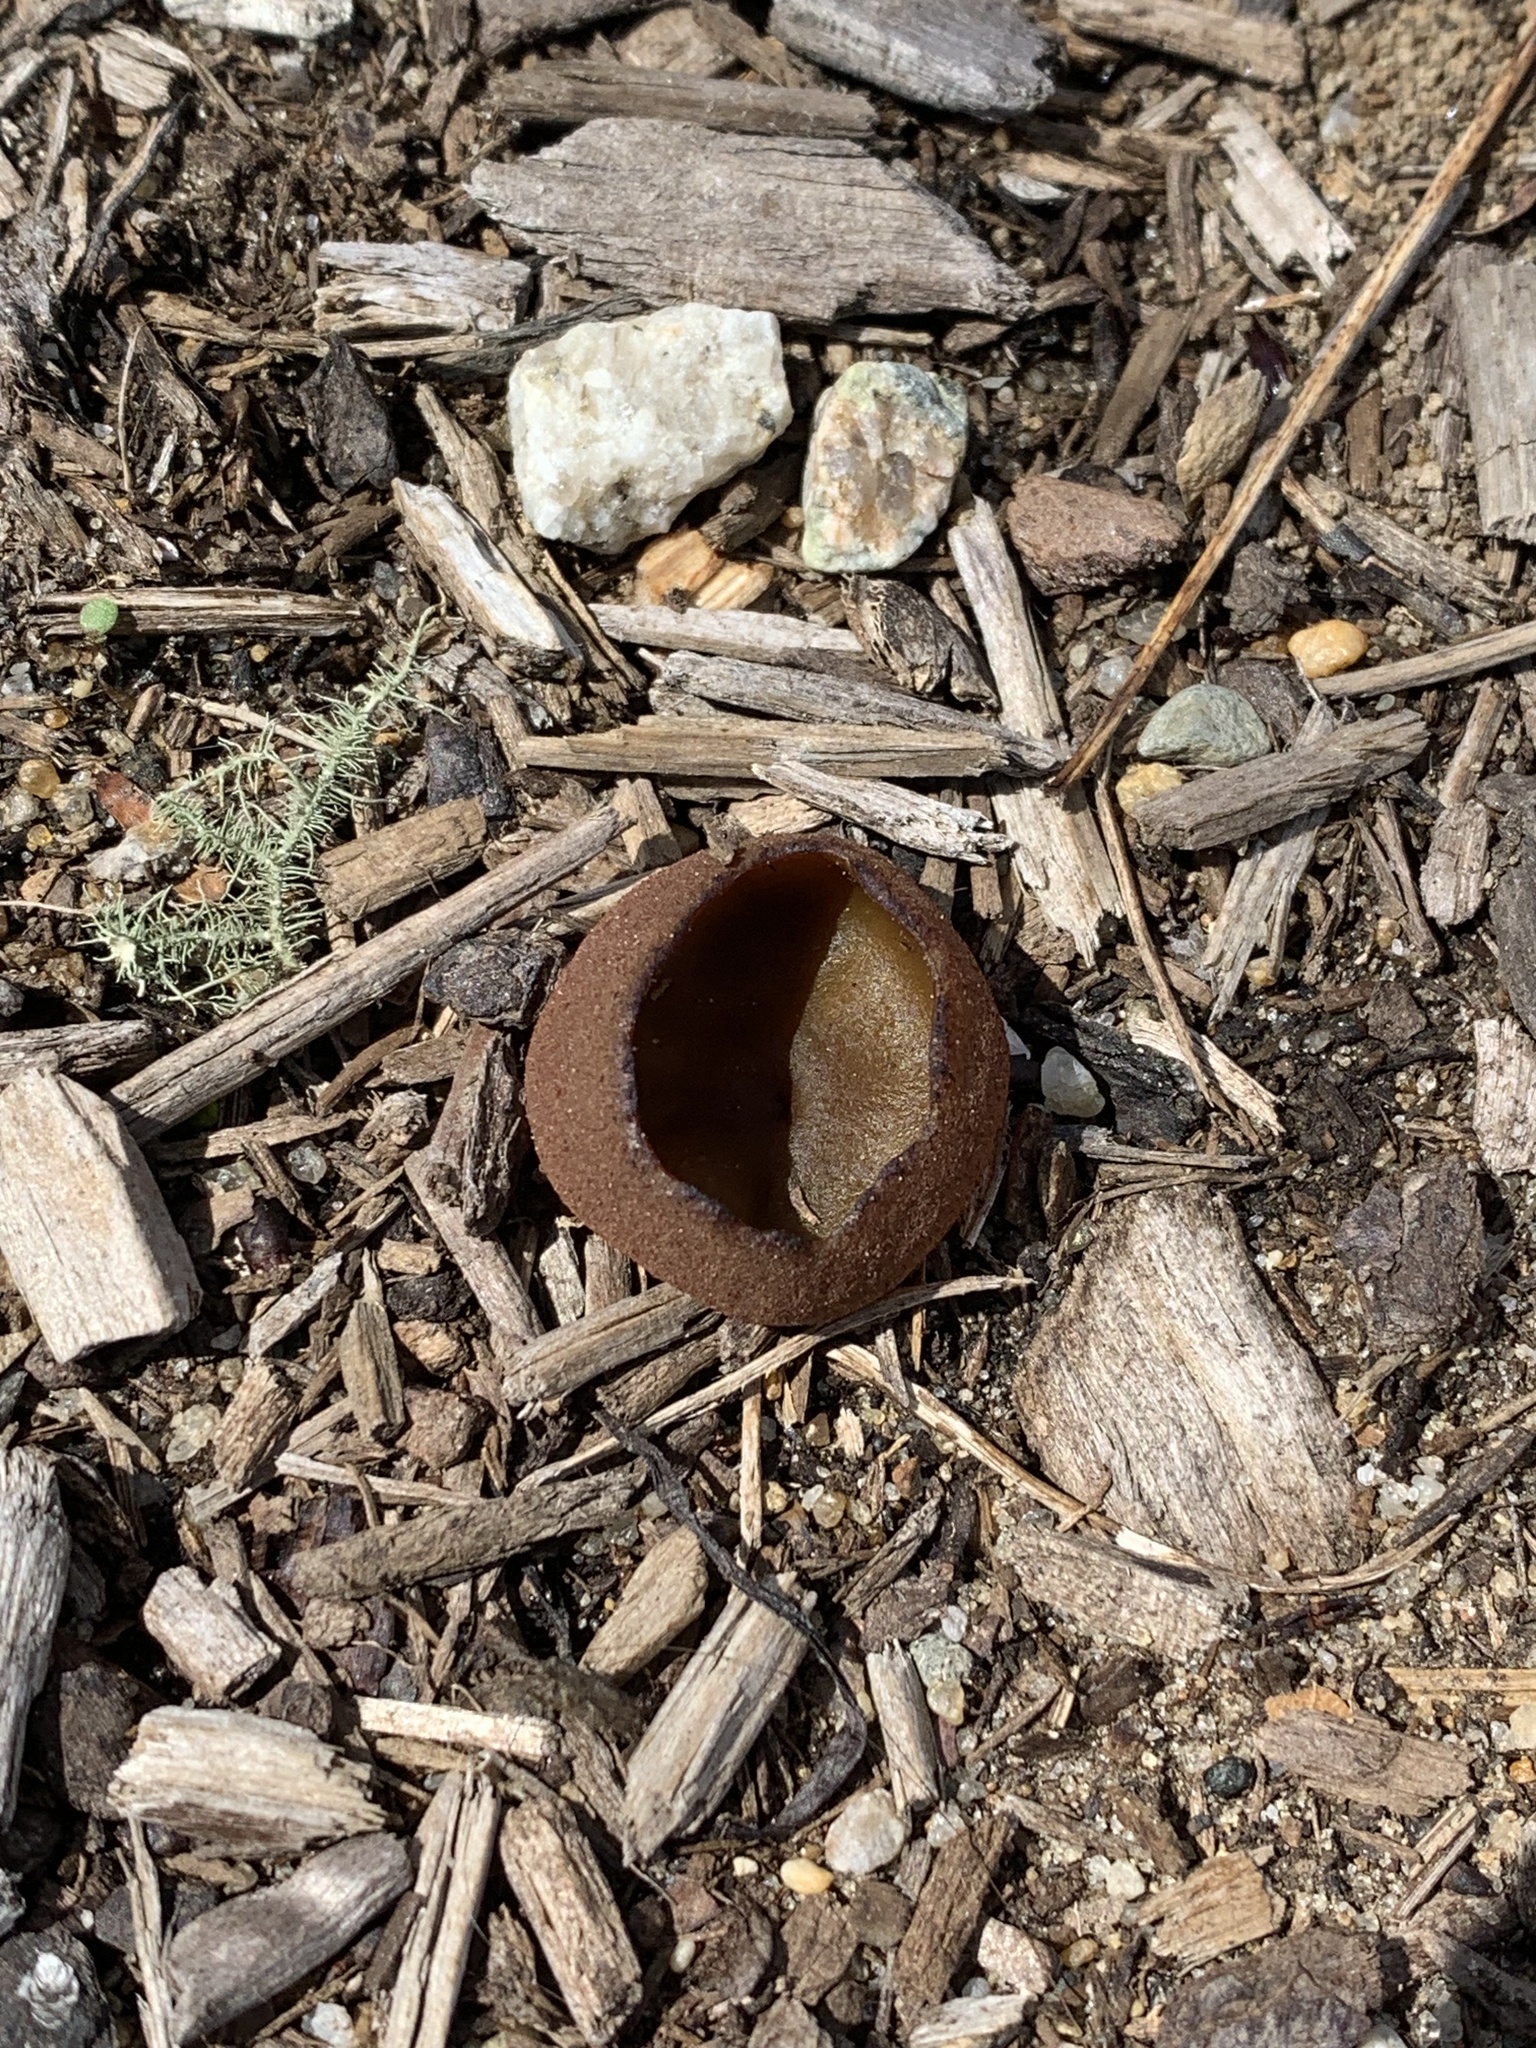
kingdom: Fungi
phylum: Ascomycota
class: Pezizomycetes
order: Pezizales
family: Pezizaceae
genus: Phylloscypha
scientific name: Phylloscypha phyllogena
